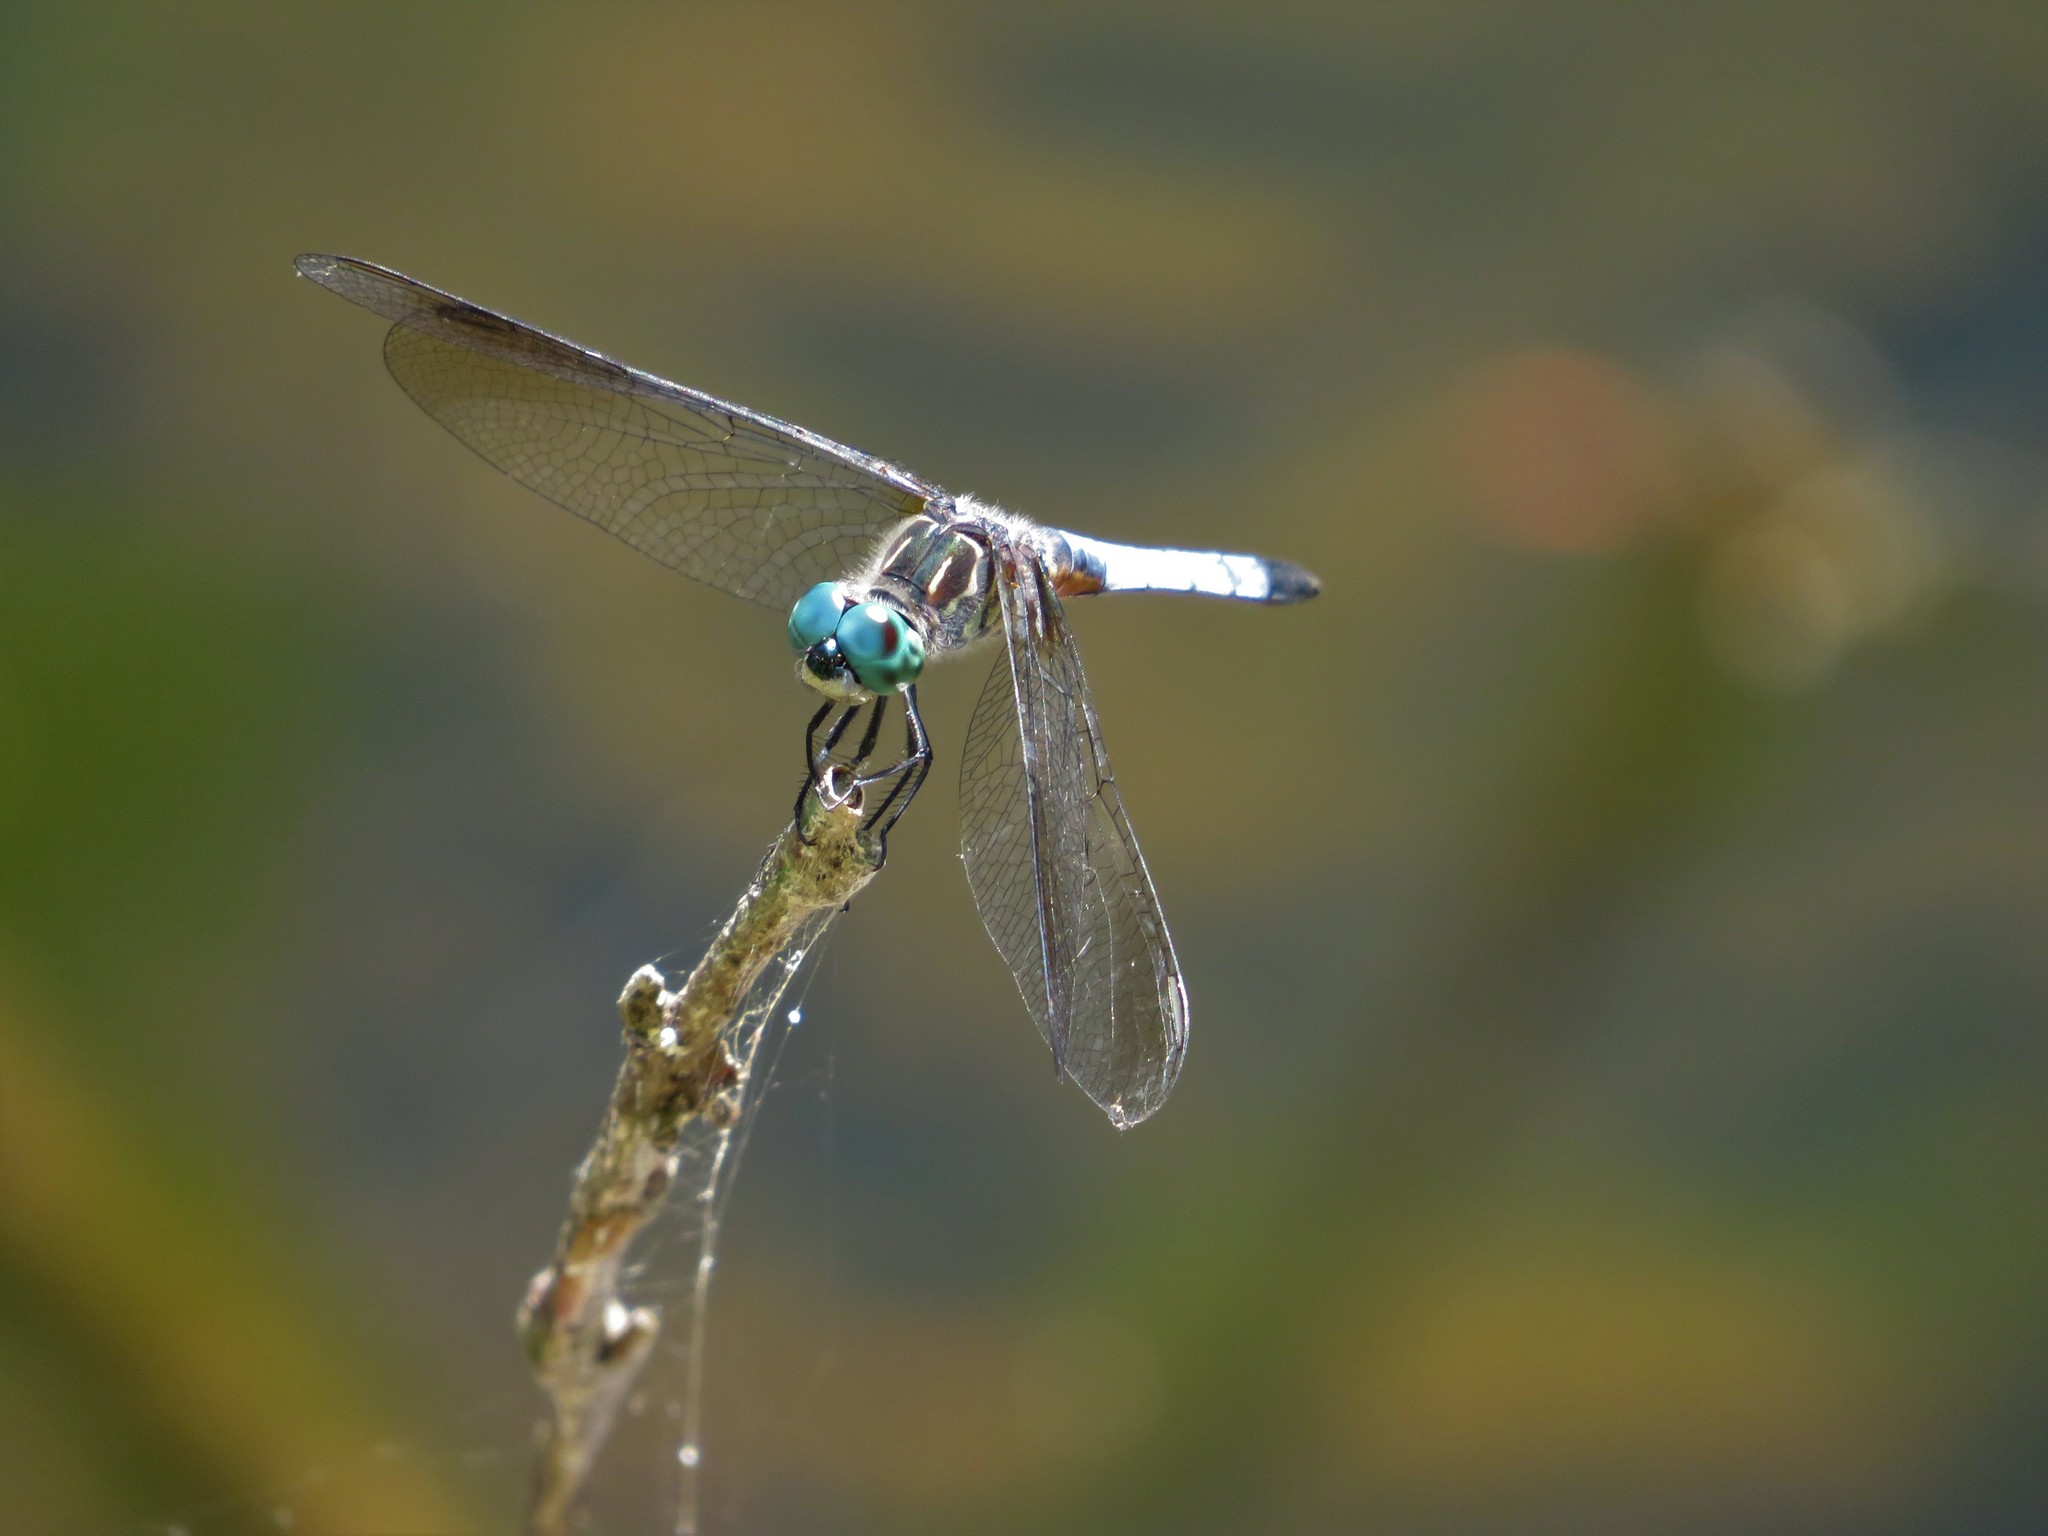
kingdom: Animalia
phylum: Arthropoda
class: Insecta
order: Odonata
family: Libellulidae
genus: Pachydiplax
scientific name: Pachydiplax longipennis
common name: Blue dasher
